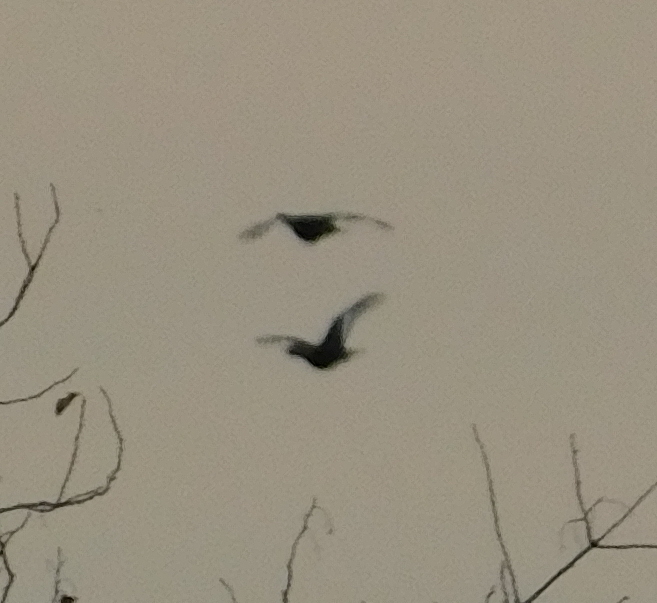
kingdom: Animalia
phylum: Chordata
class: Aves
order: Galliformes
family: Phasianidae
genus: Lyrurus
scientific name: Lyrurus tetrix
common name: Black grouse
